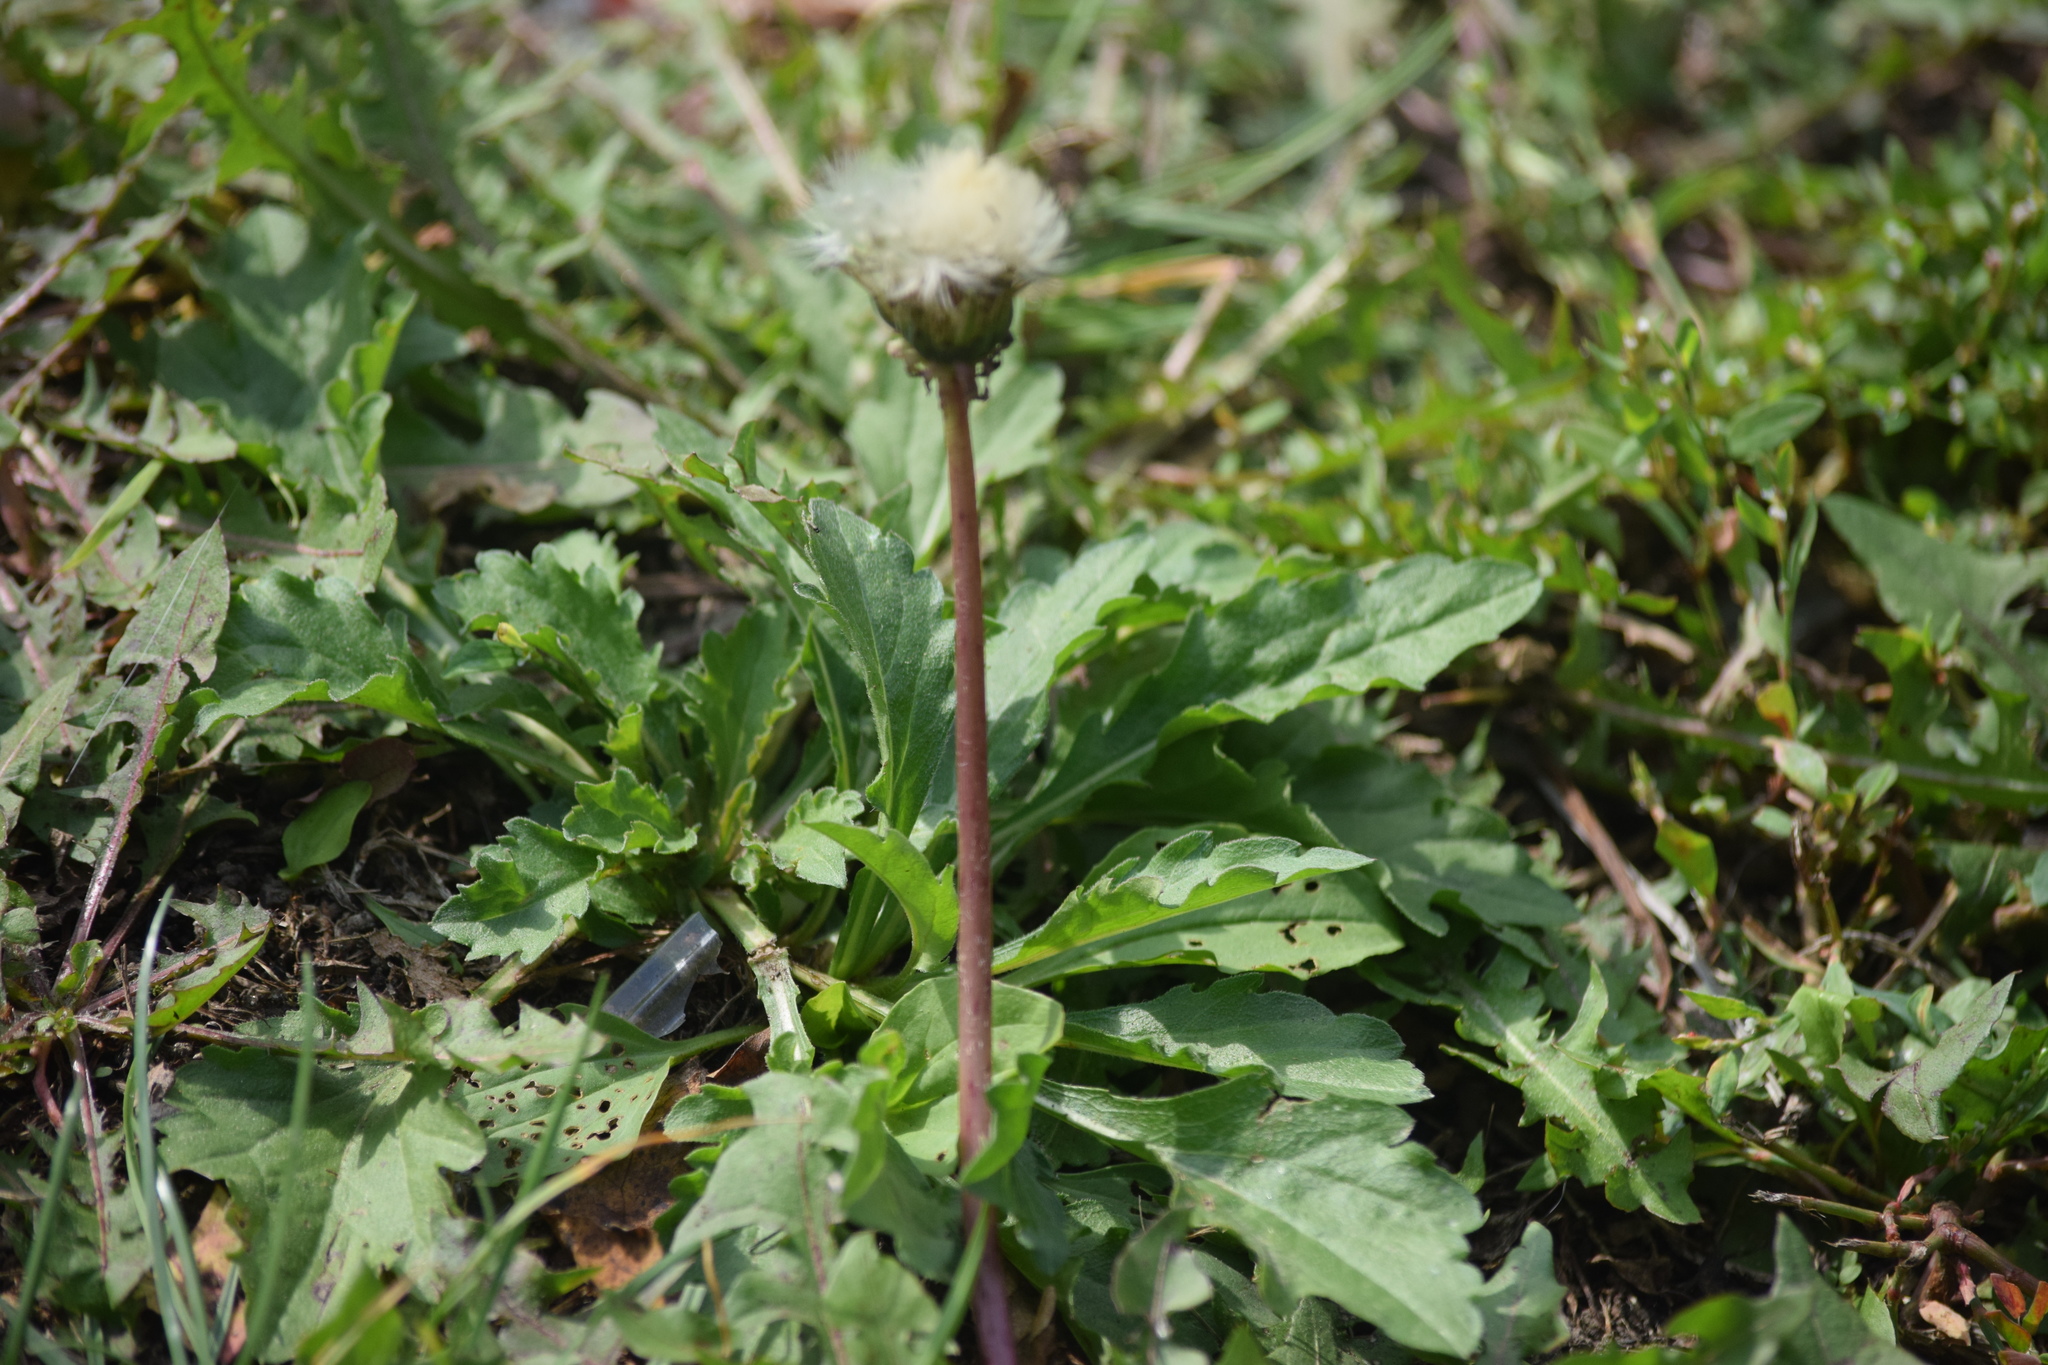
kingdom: Plantae
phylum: Tracheophyta
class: Magnoliopsida
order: Asterales
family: Asteraceae
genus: Taraxacum
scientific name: Taraxacum officinale
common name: Common dandelion
